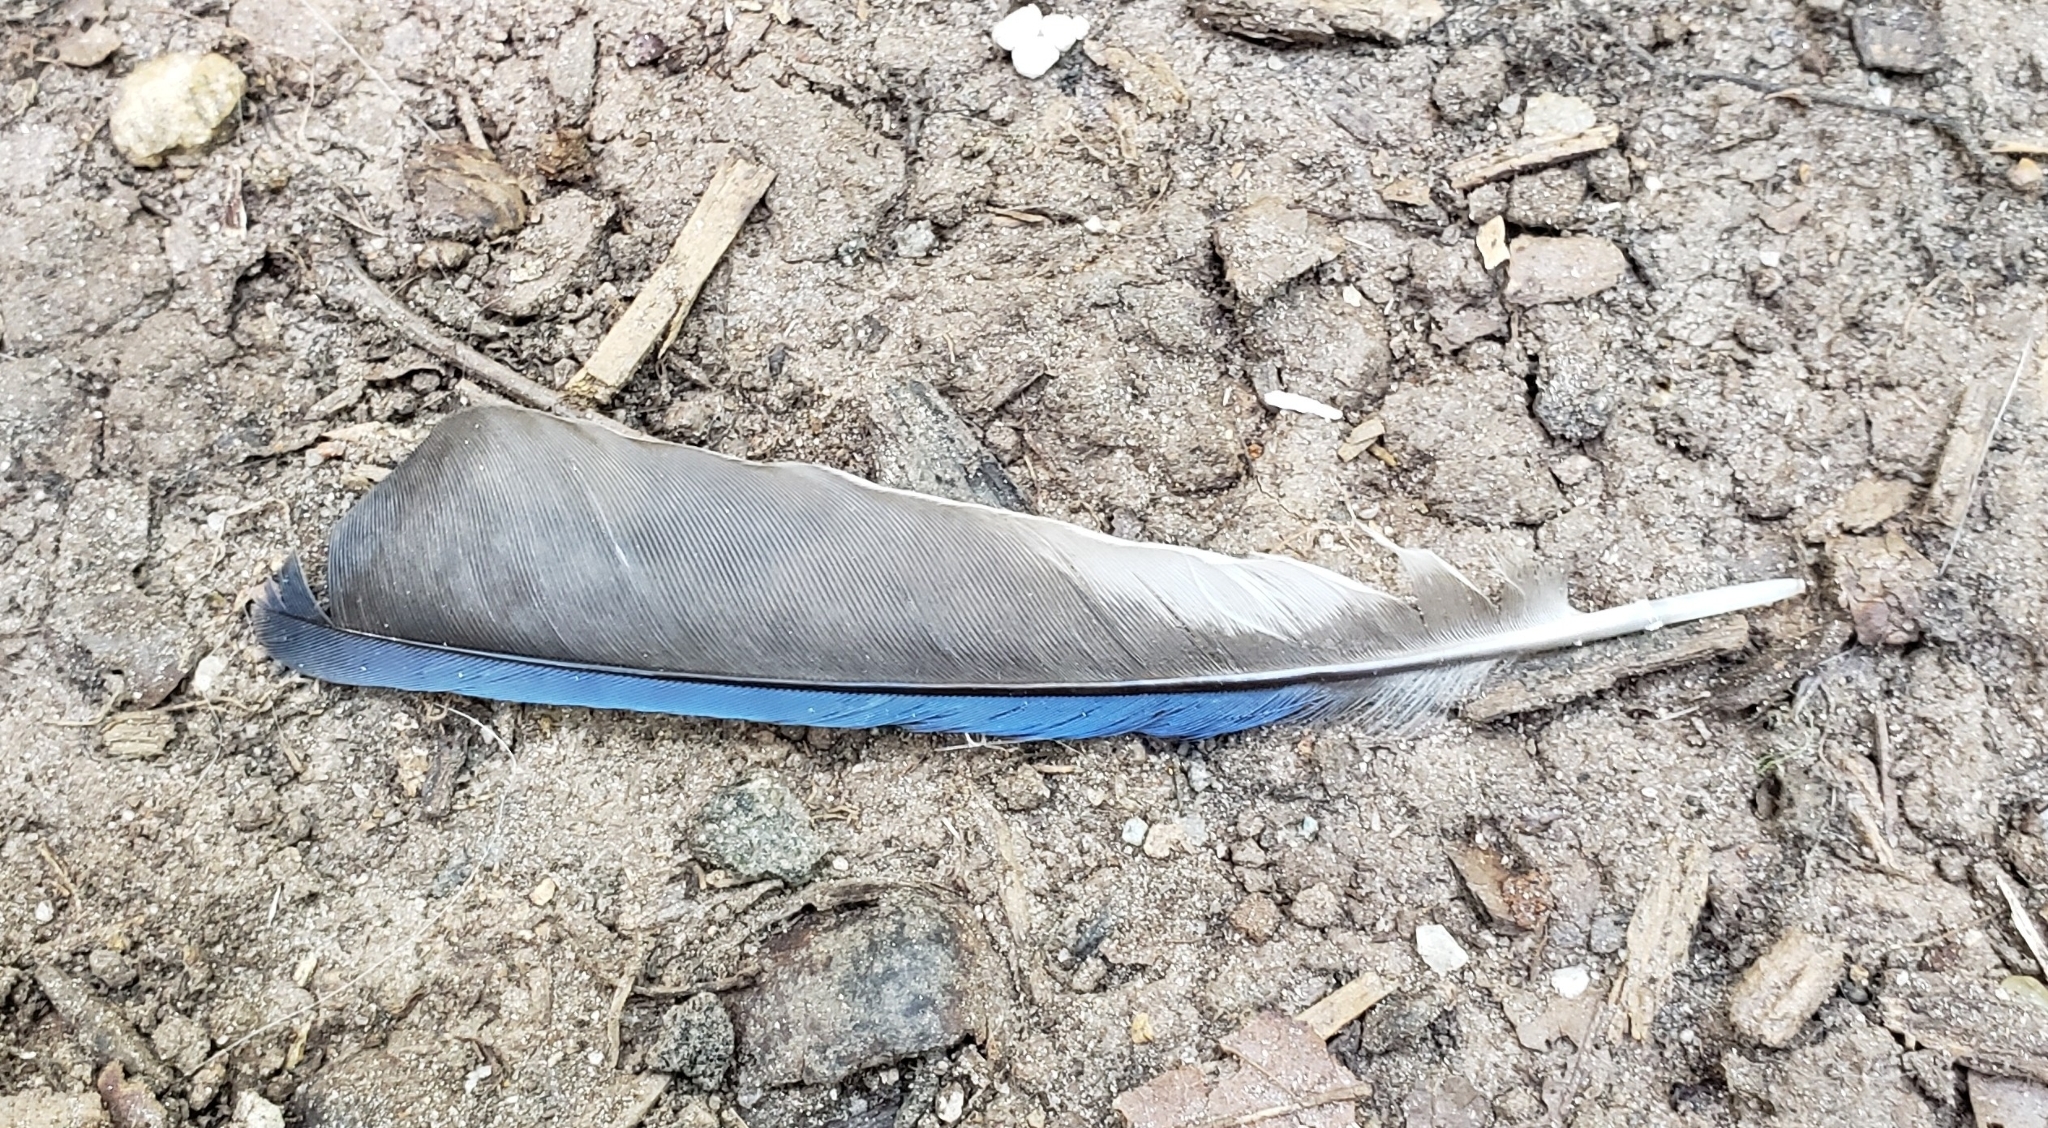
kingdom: Animalia
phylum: Chordata
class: Aves
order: Passeriformes
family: Corvidae
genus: Cyanocitta
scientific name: Cyanocitta cristata
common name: Blue jay
